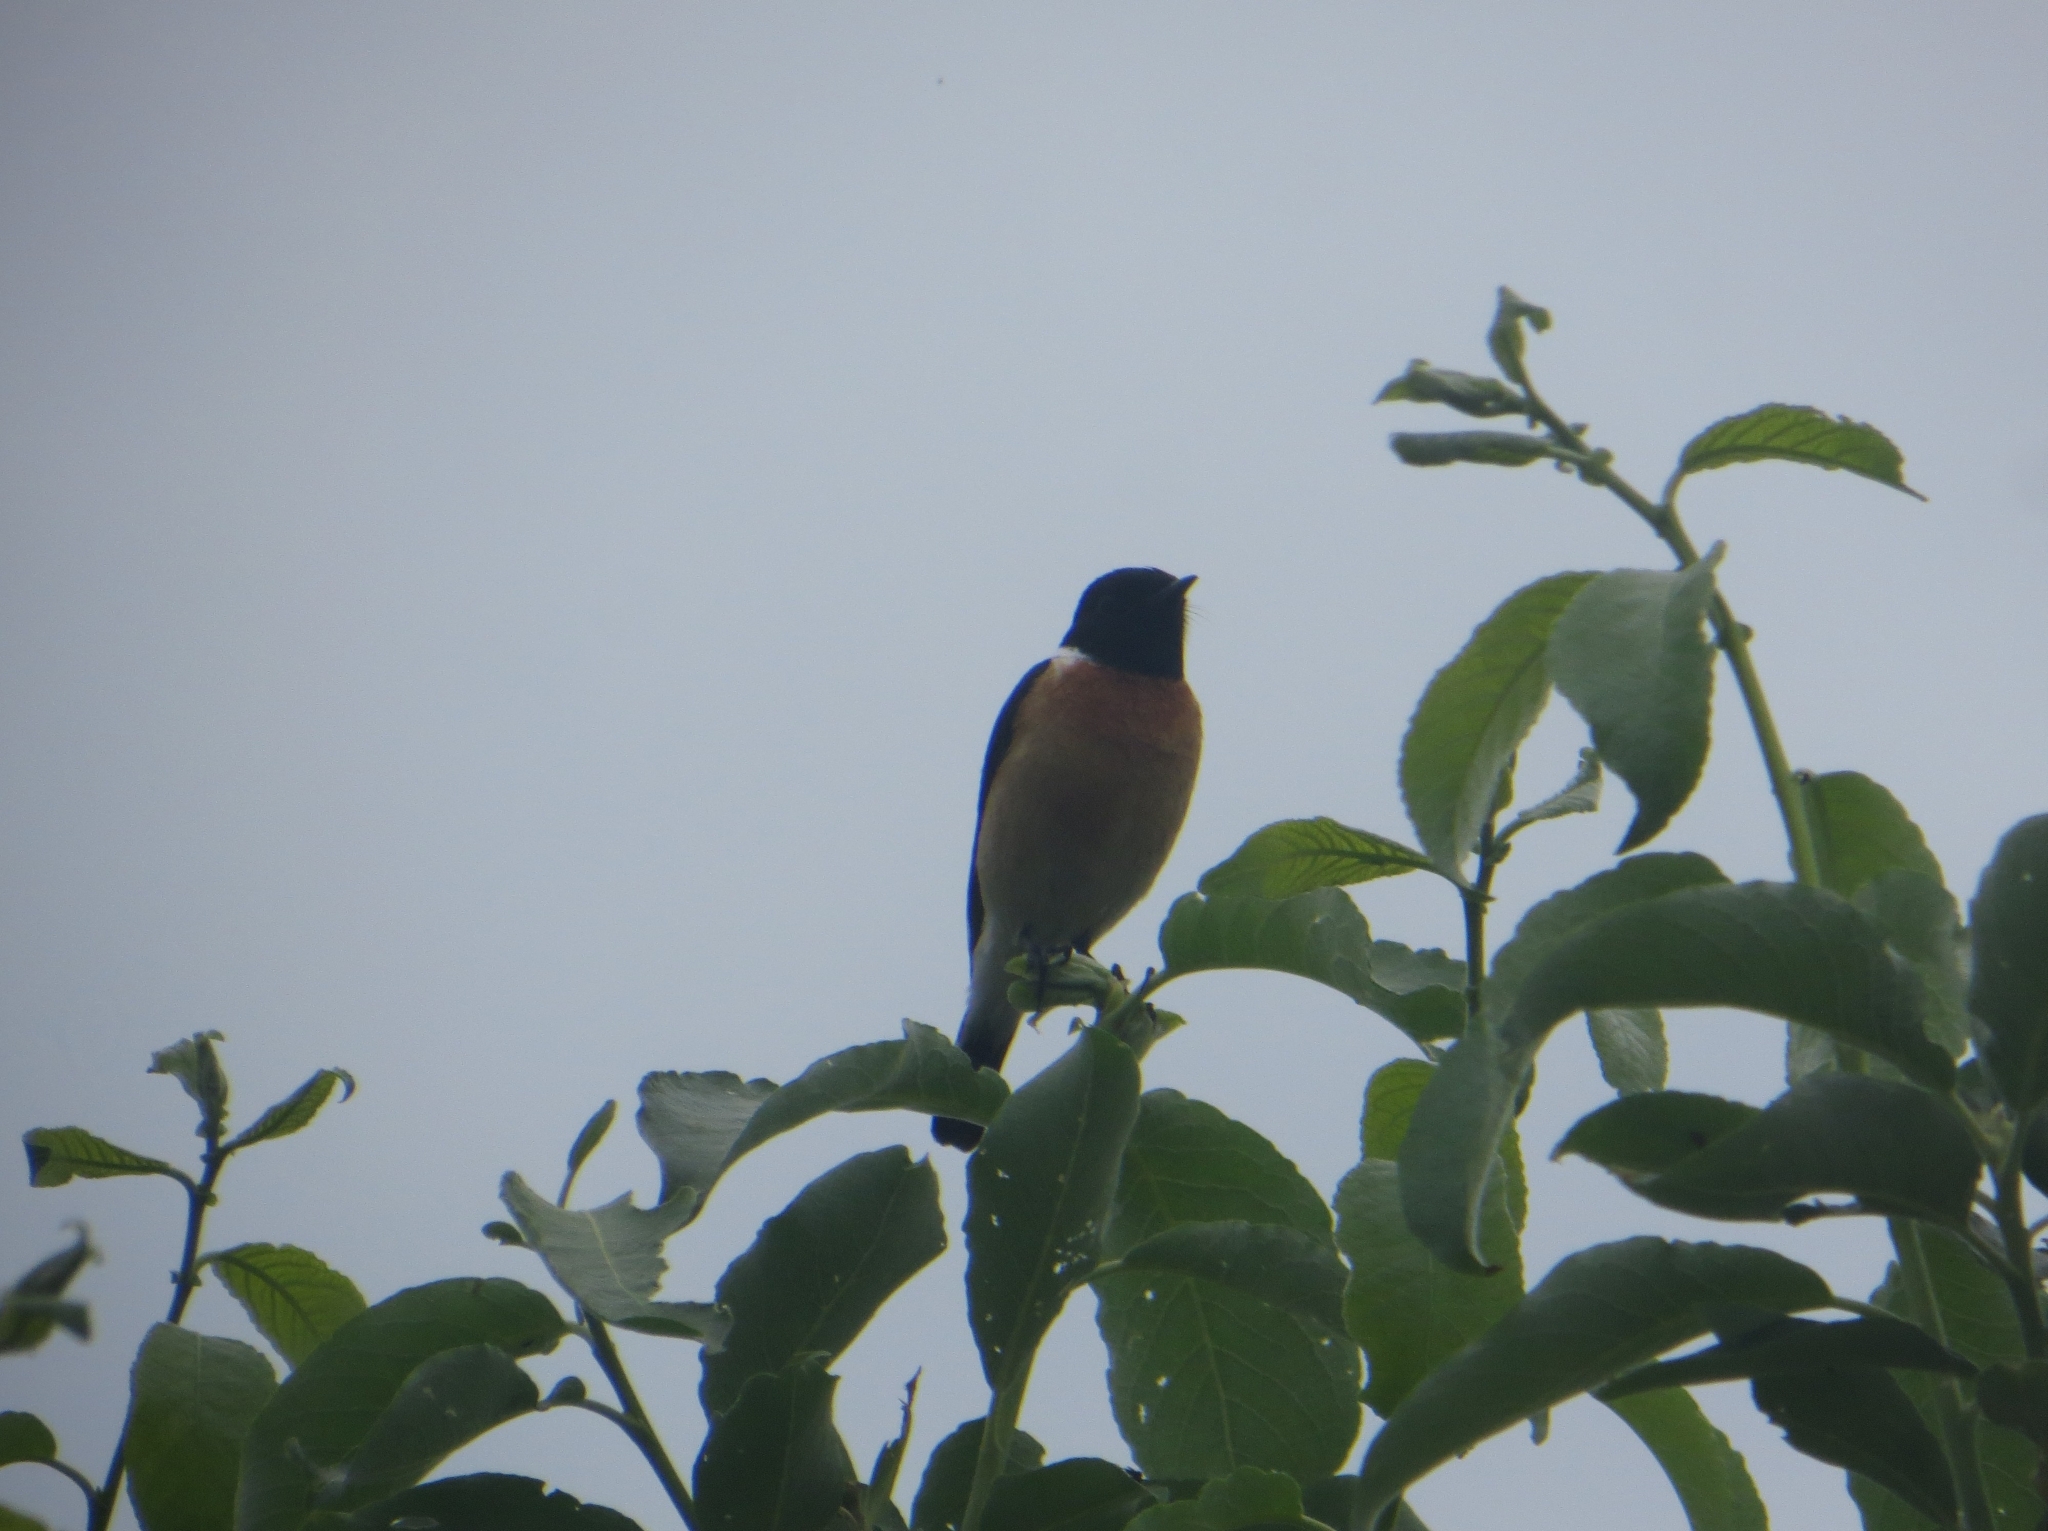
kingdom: Animalia
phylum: Chordata
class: Aves
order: Passeriformes
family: Muscicapidae
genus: Saxicola
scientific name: Saxicola maurus
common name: Siberian stonechat
